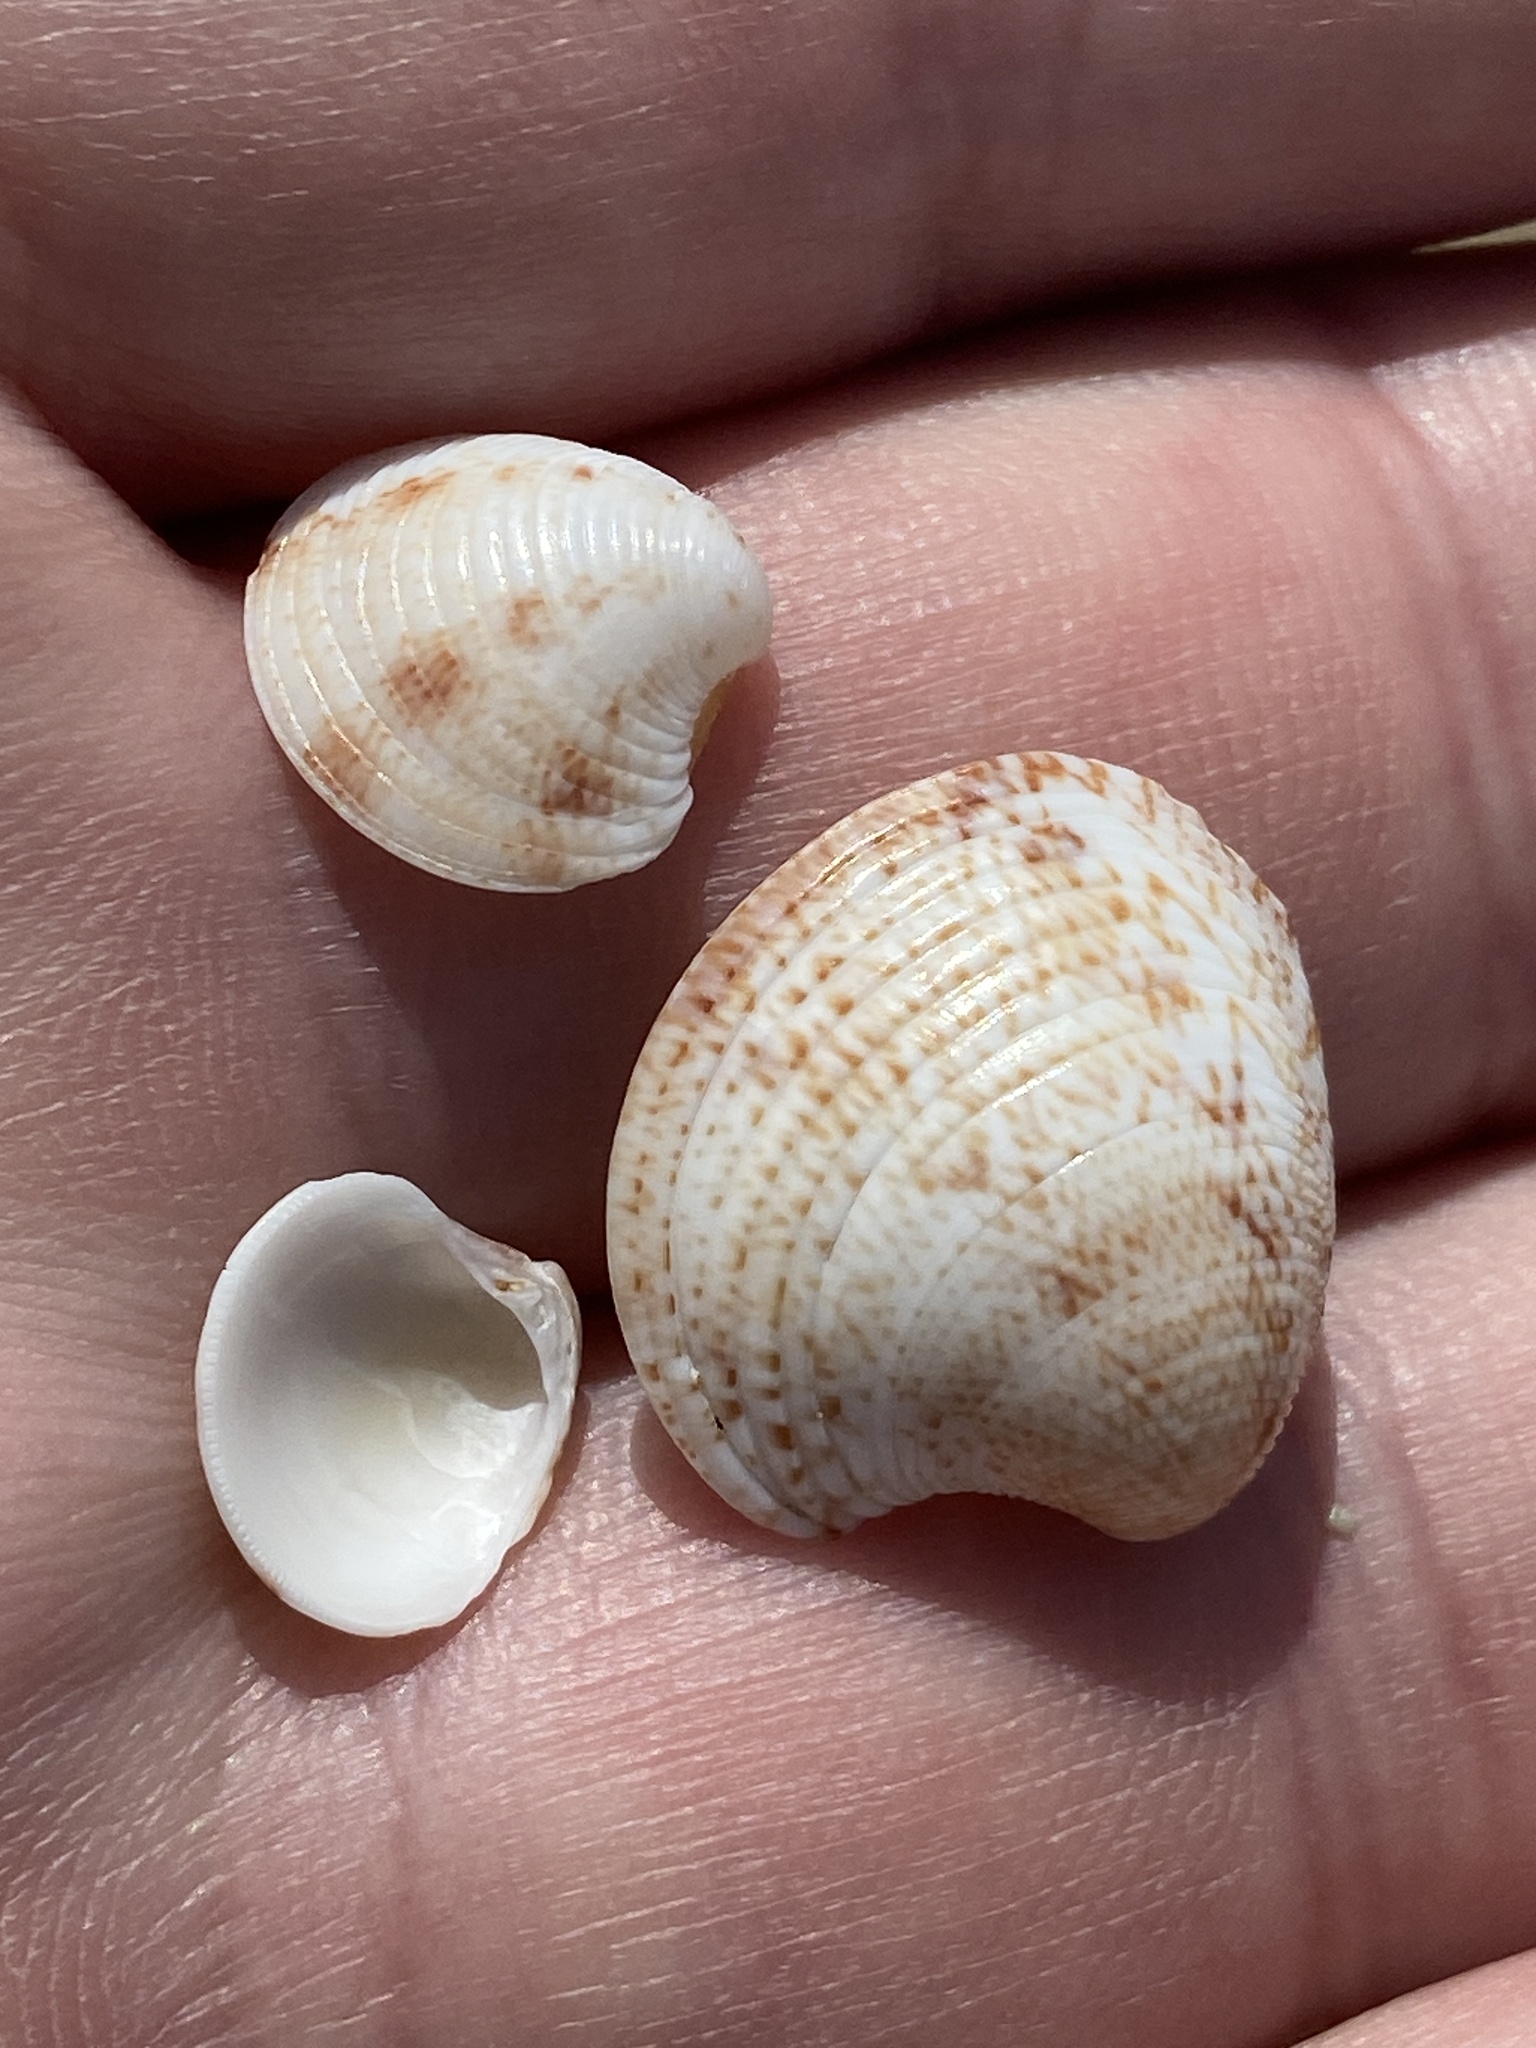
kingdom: Animalia
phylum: Mollusca
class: Bivalvia
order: Venerida
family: Veneridae
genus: Chamelea
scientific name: Chamelea gallina
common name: Chicken venus
